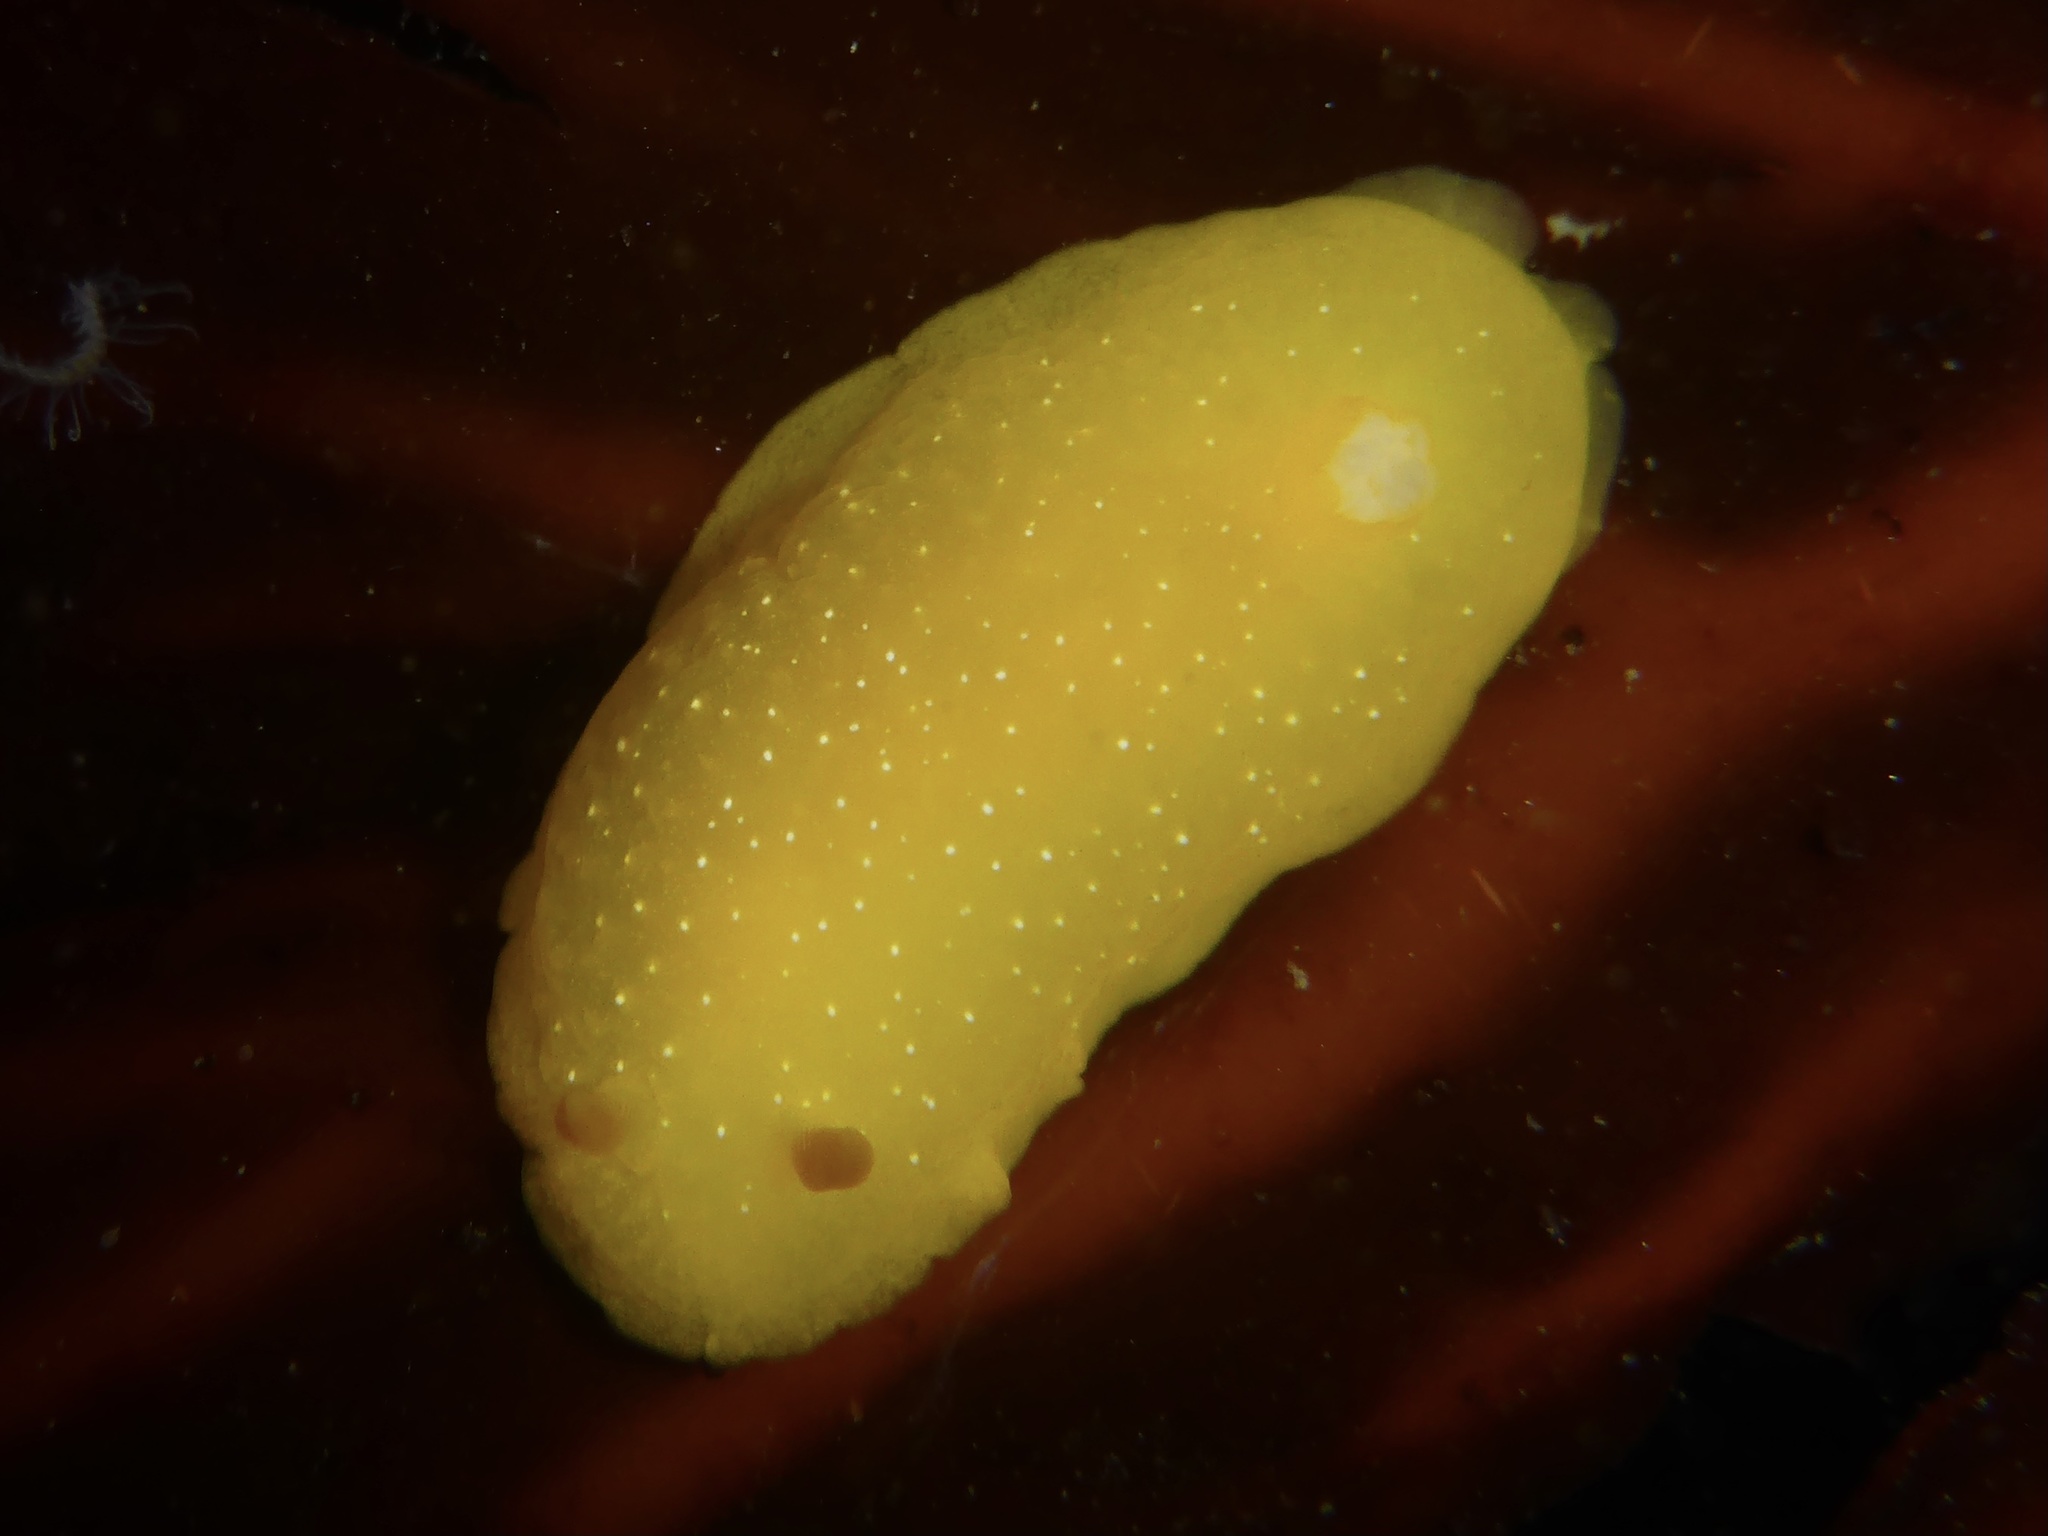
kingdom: Animalia
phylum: Mollusca
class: Gastropoda
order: Nudibranchia
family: Dendrodorididae
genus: Doriopsilla
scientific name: Doriopsilla fulva
